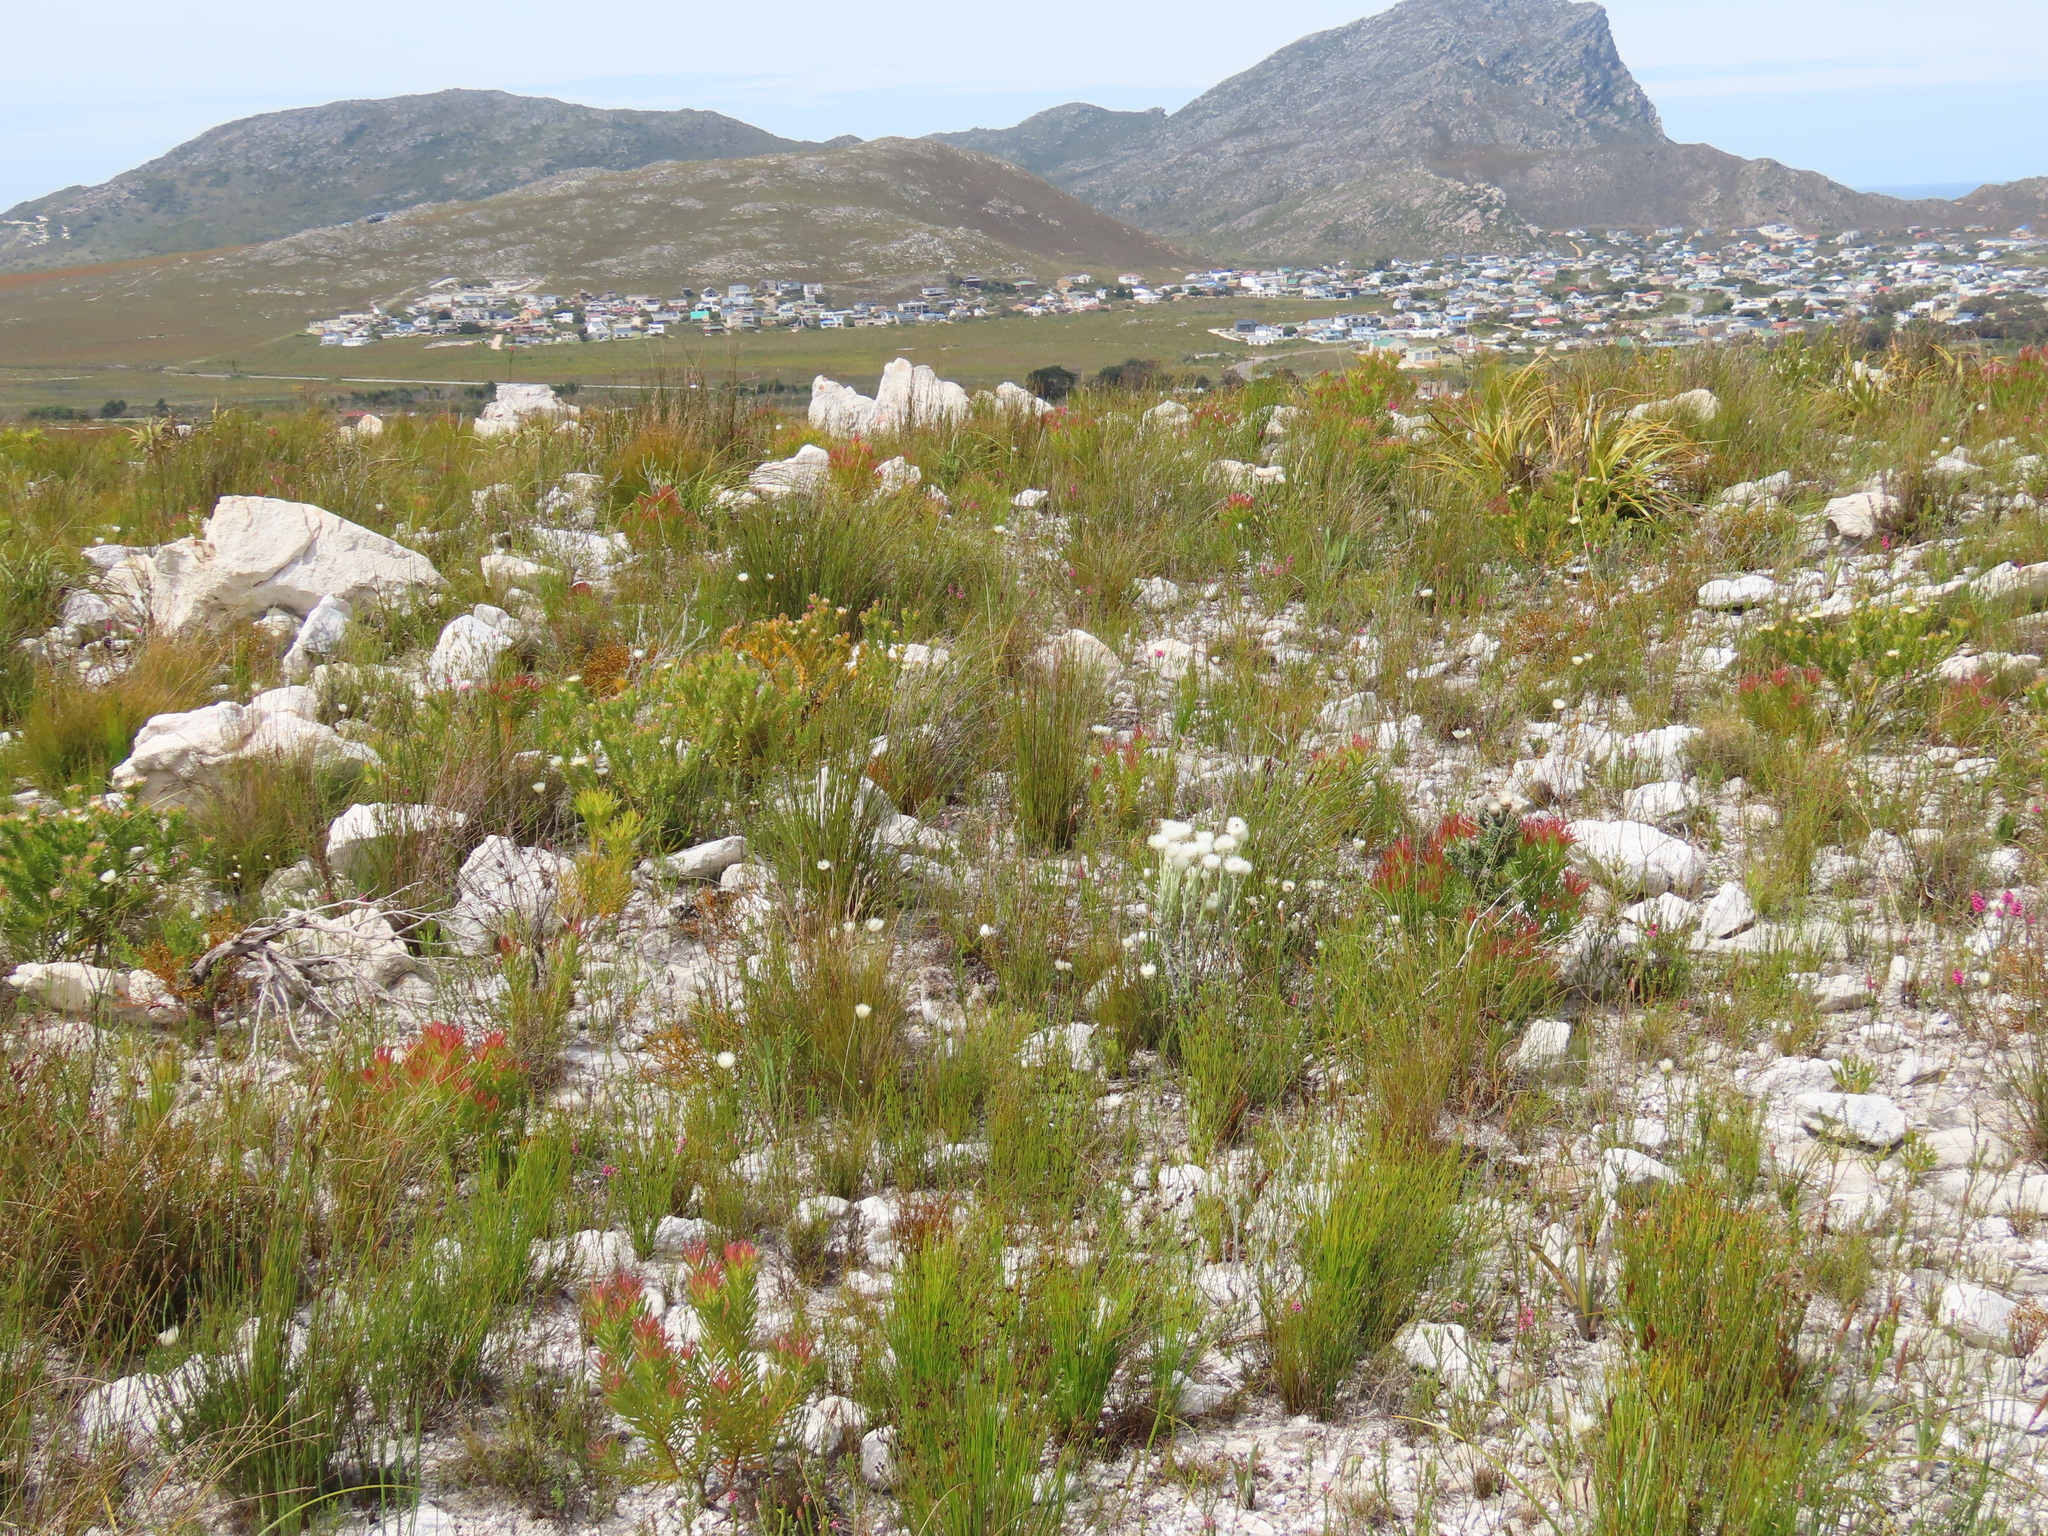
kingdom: Plantae
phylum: Tracheophyta
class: Magnoliopsida
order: Asterales
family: Asteraceae
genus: Syncarpha
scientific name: Syncarpha vestita
